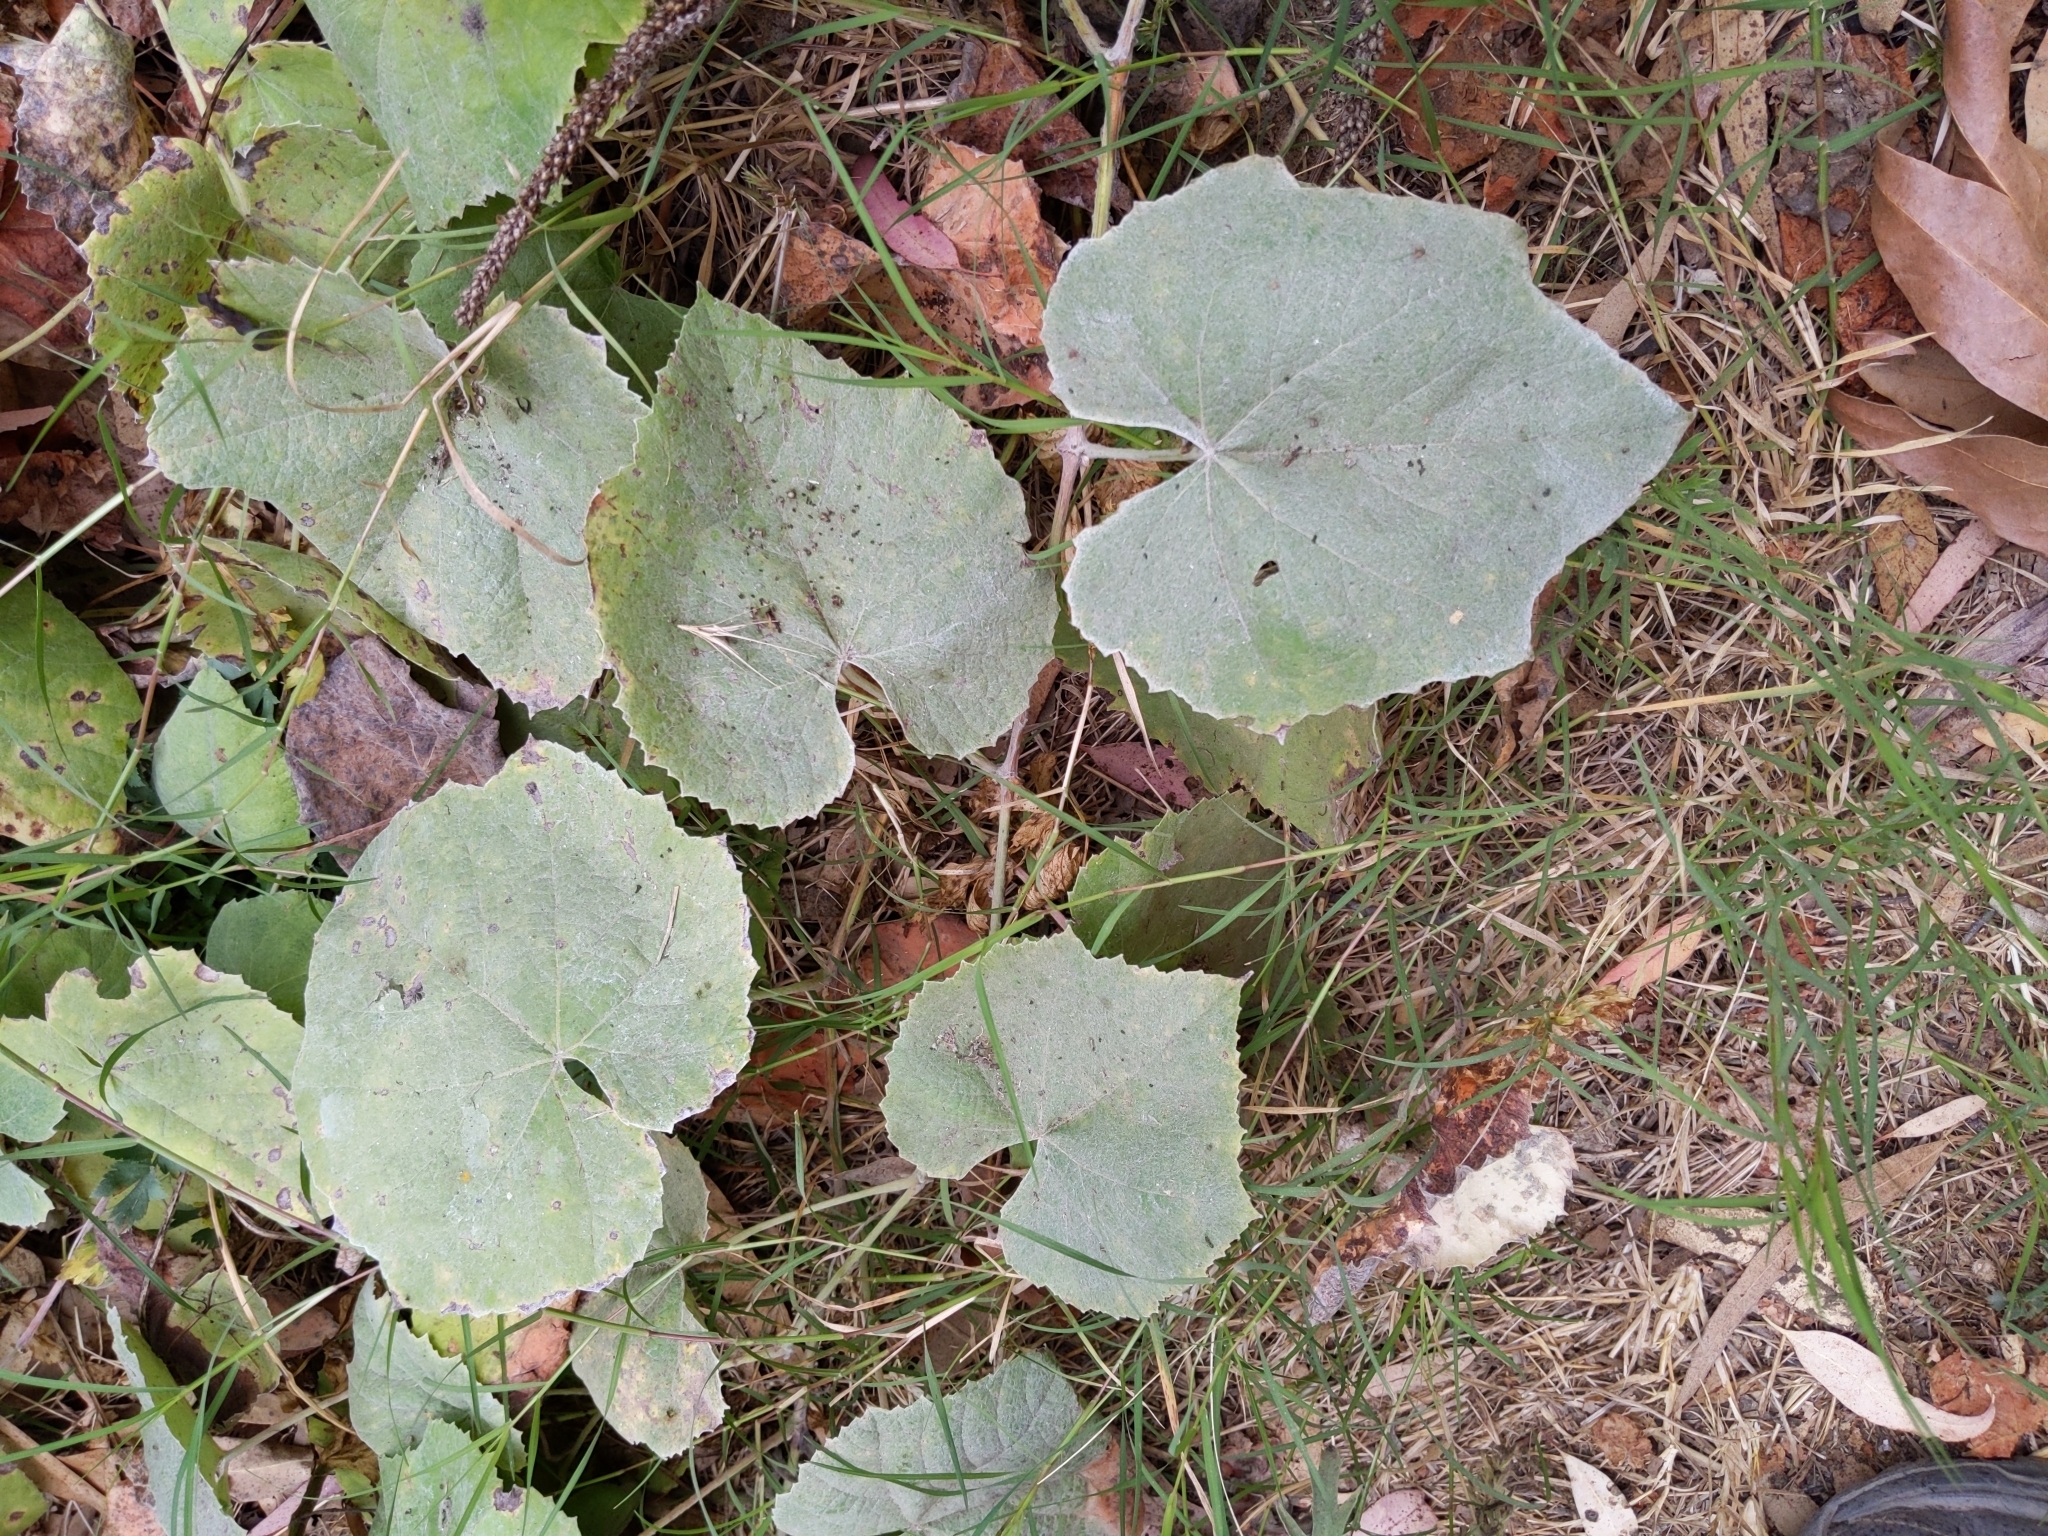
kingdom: Plantae
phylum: Tracheophyta
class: Magnoliopsida
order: Vitales
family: Vitaceae
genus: Vitis
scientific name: Vitis girdiana
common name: Desert wild grape
